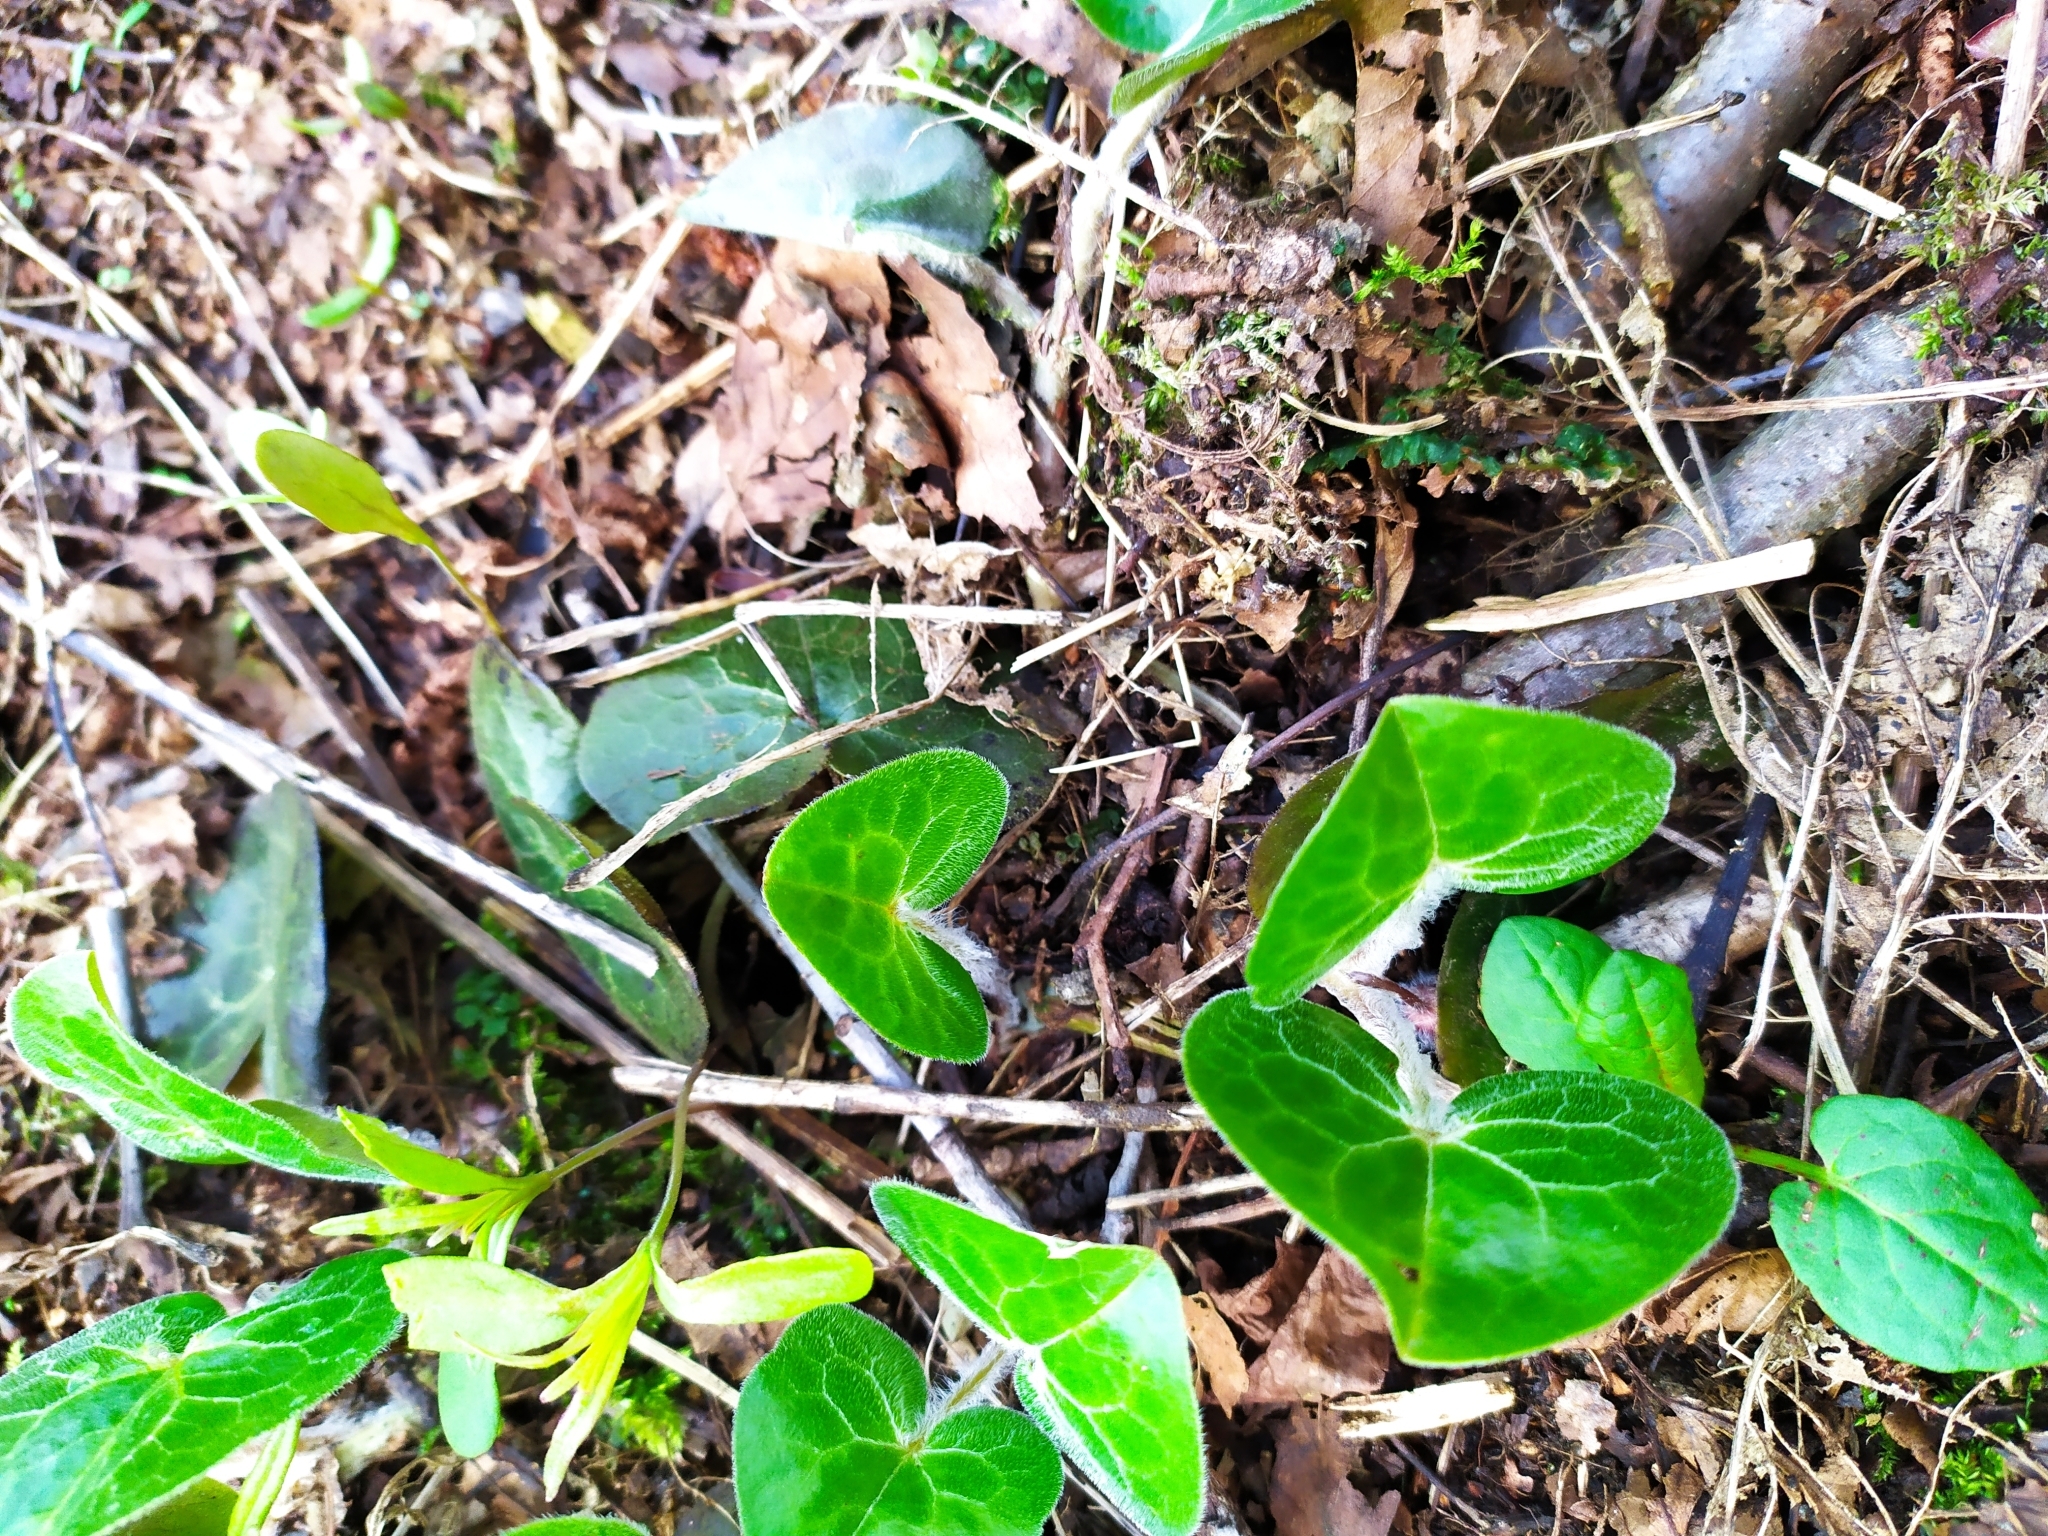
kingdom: Plantae
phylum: Tracheophyta
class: Magnoliopsida
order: Piperales
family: Aristolochiaceae
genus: Asarum
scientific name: Asarum europaeum
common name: Asarabacca
